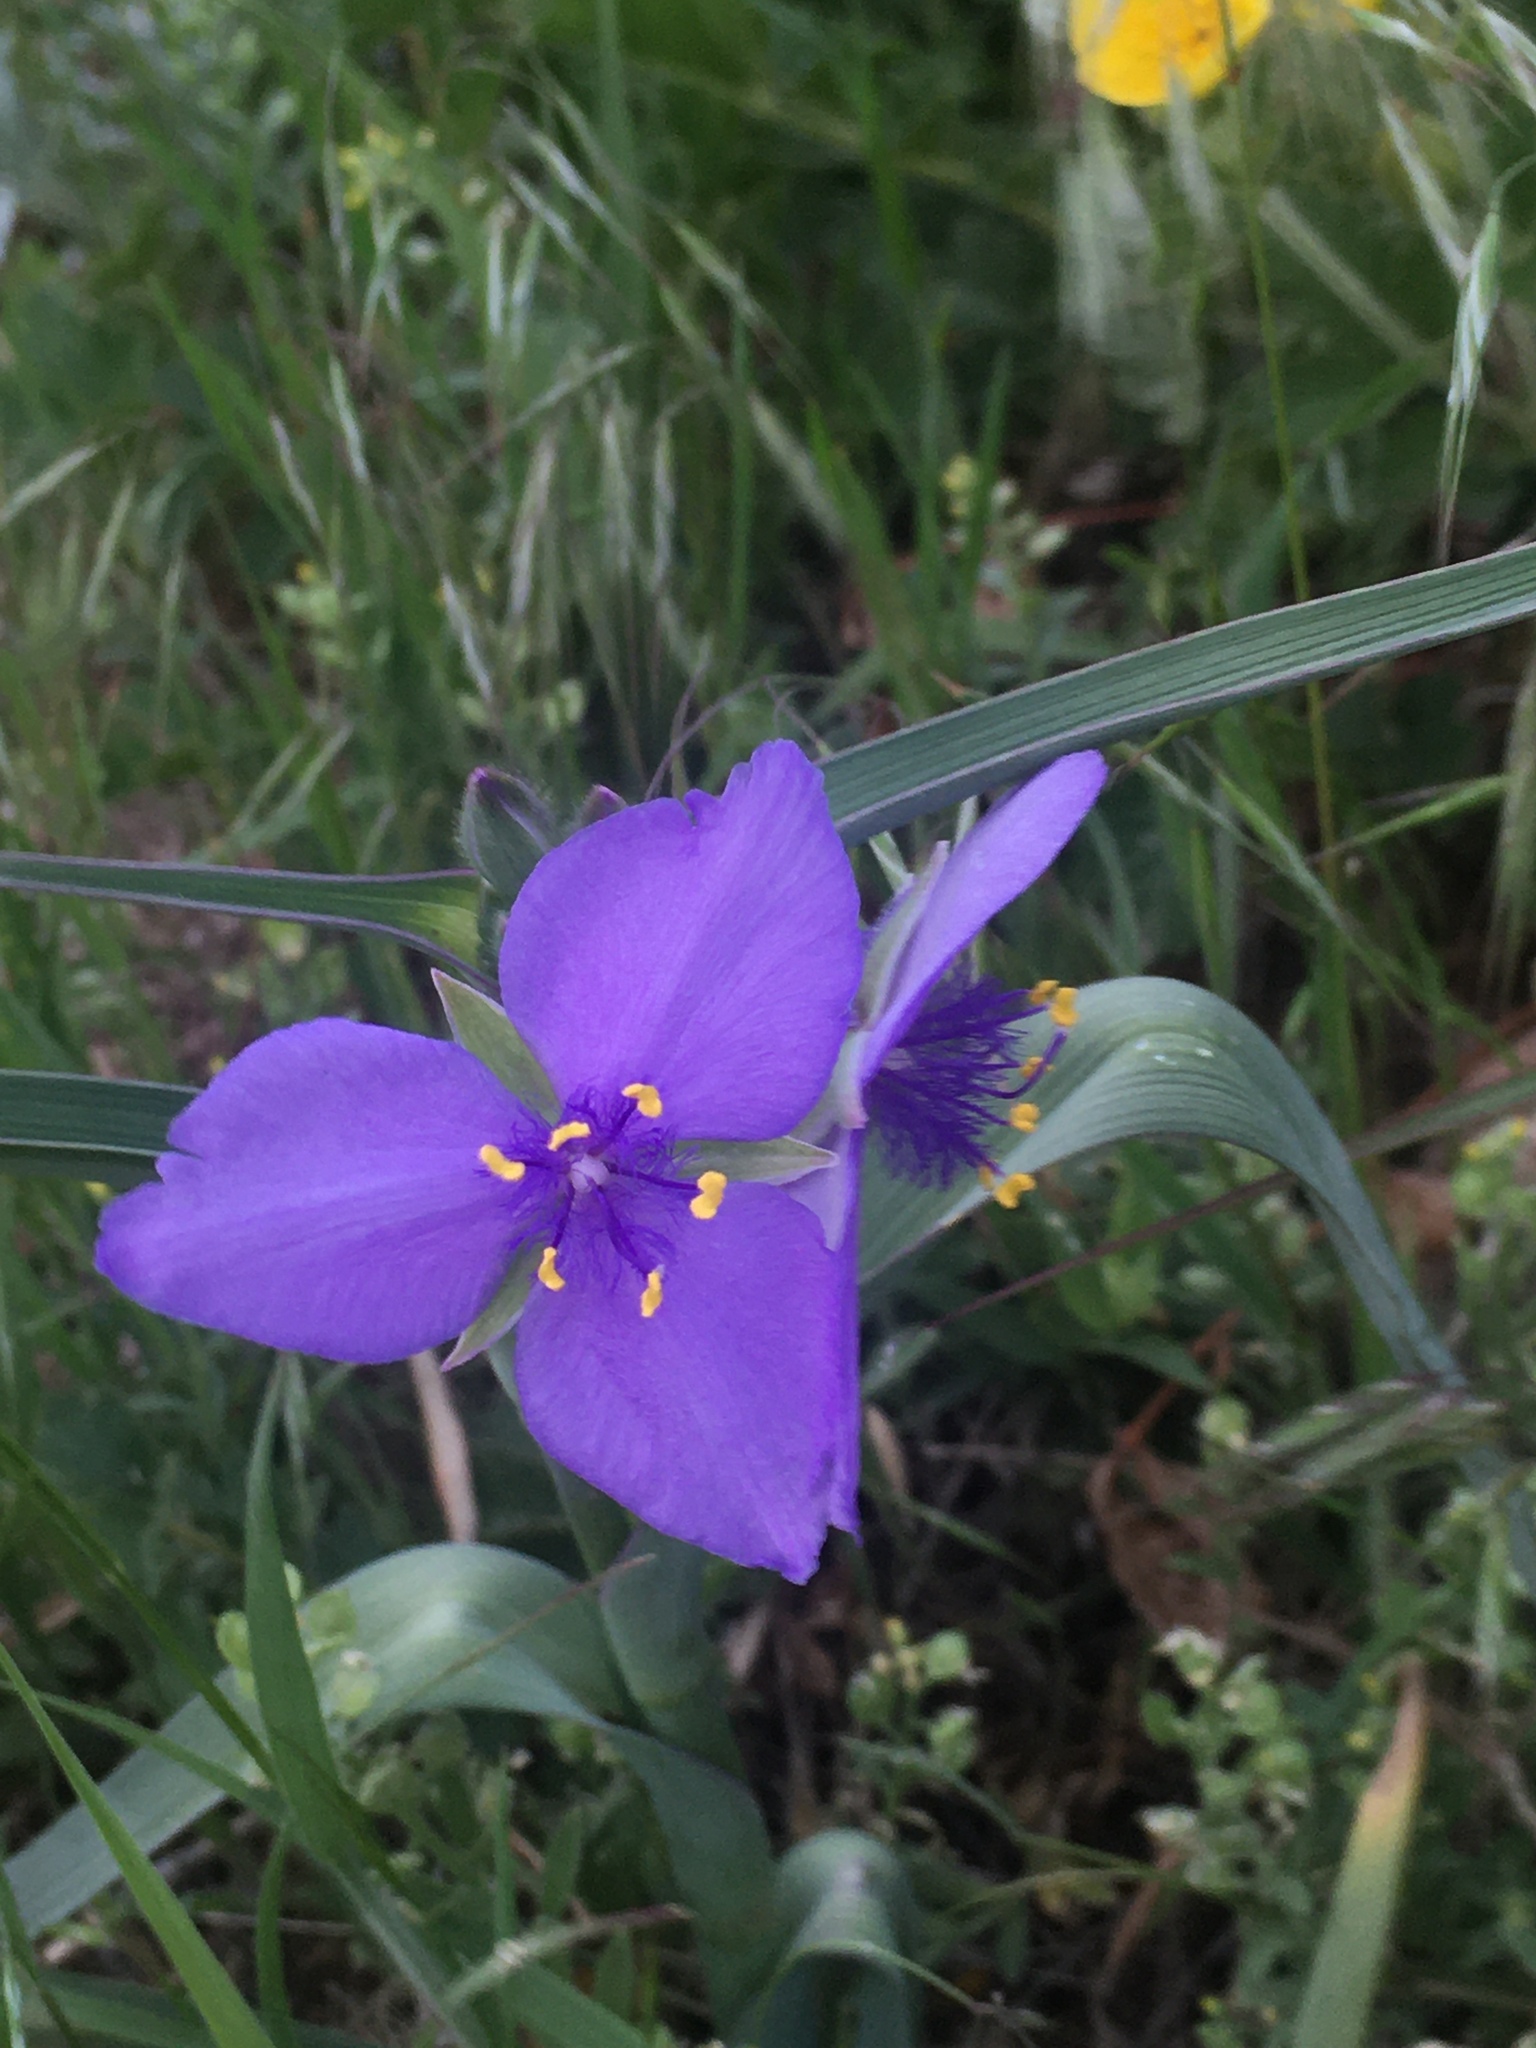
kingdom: Plantae
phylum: Tracheophyta
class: Liliopsida
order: Commelinales
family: Commelinaceae
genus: Tradescantia
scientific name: Tradescantia occidentalis
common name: Prairie spiderwort
